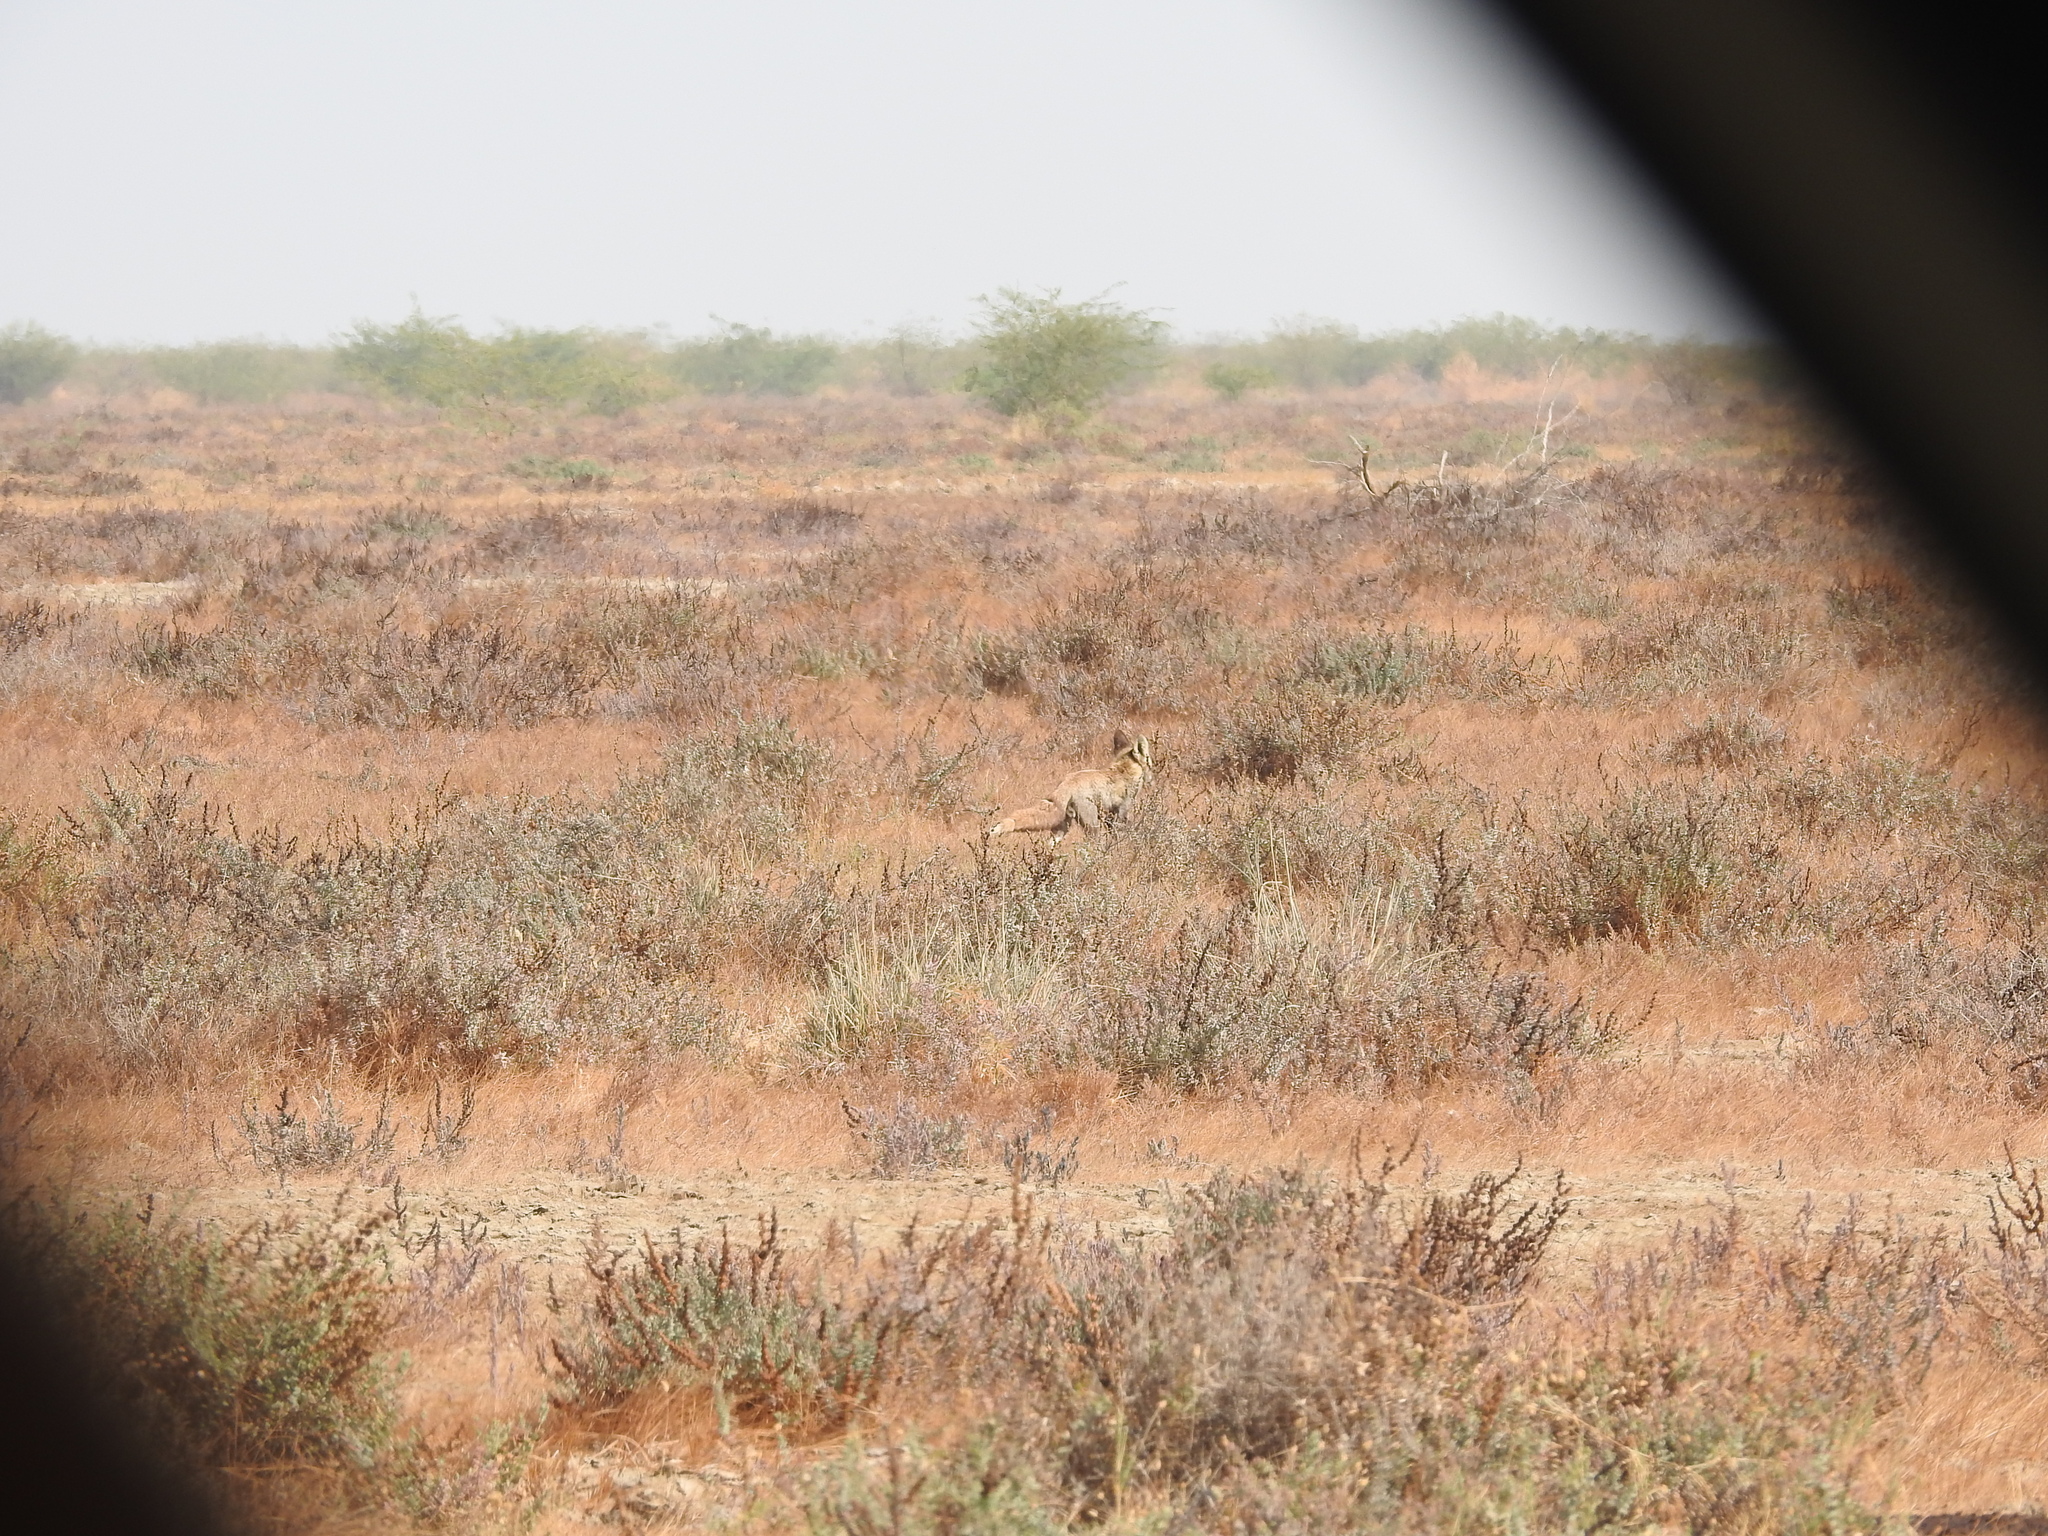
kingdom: Animalia
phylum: Chordata
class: Mammalia
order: Carnivora
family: Canidae
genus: Vulpes
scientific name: Vulpes vulpes
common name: Red fox
